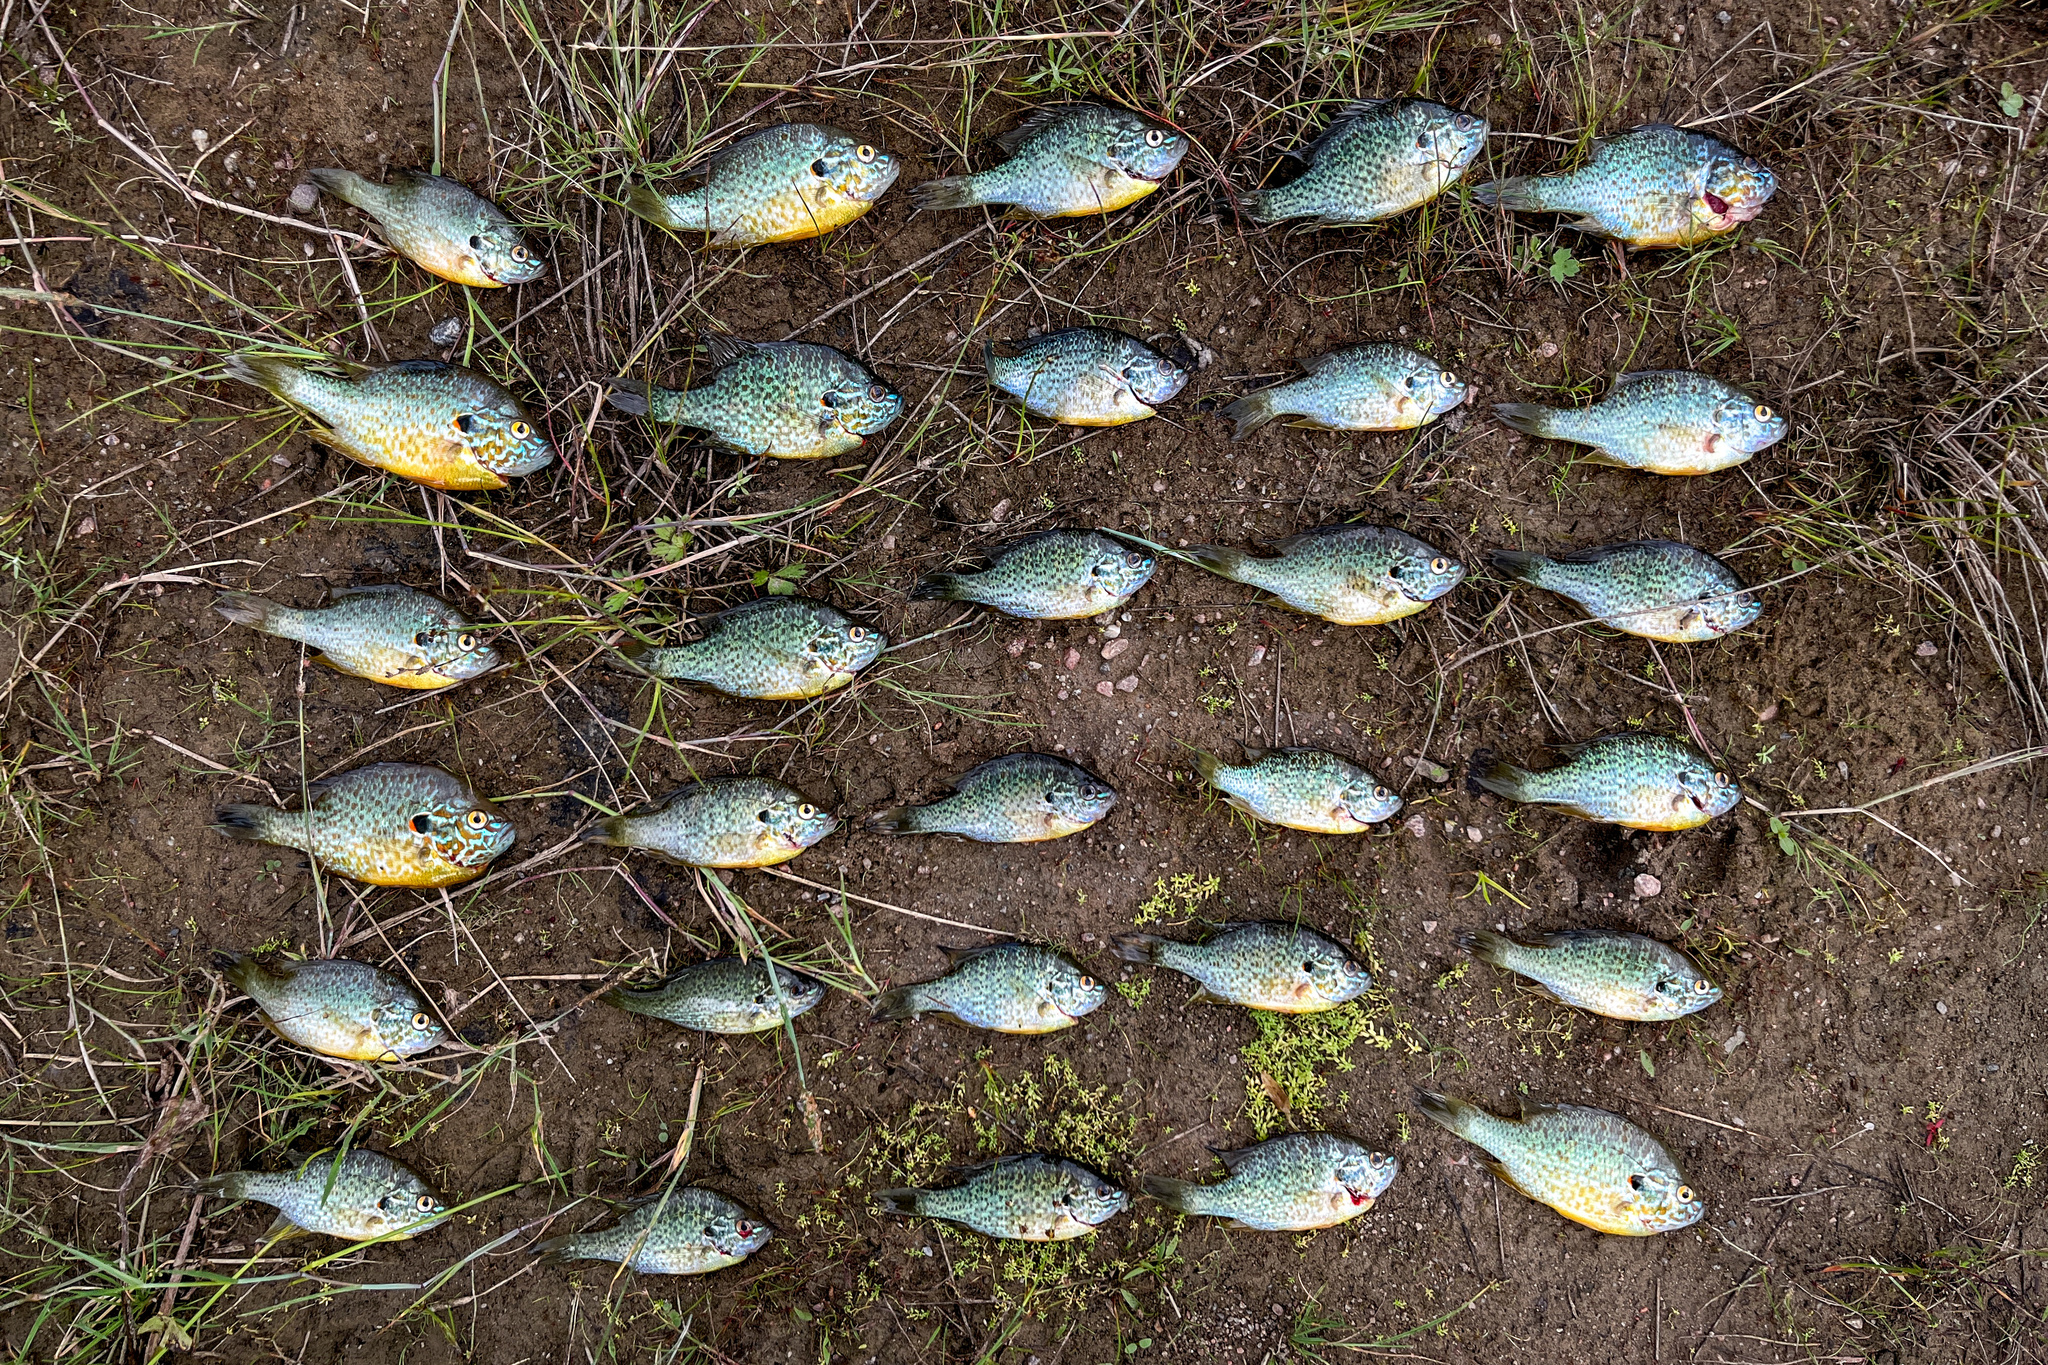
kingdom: Animalia
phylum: Chordata
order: Perciformes
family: Centrarchidae
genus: Lepomis
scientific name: Lepomis gibbosus
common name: Pumpkinseed
